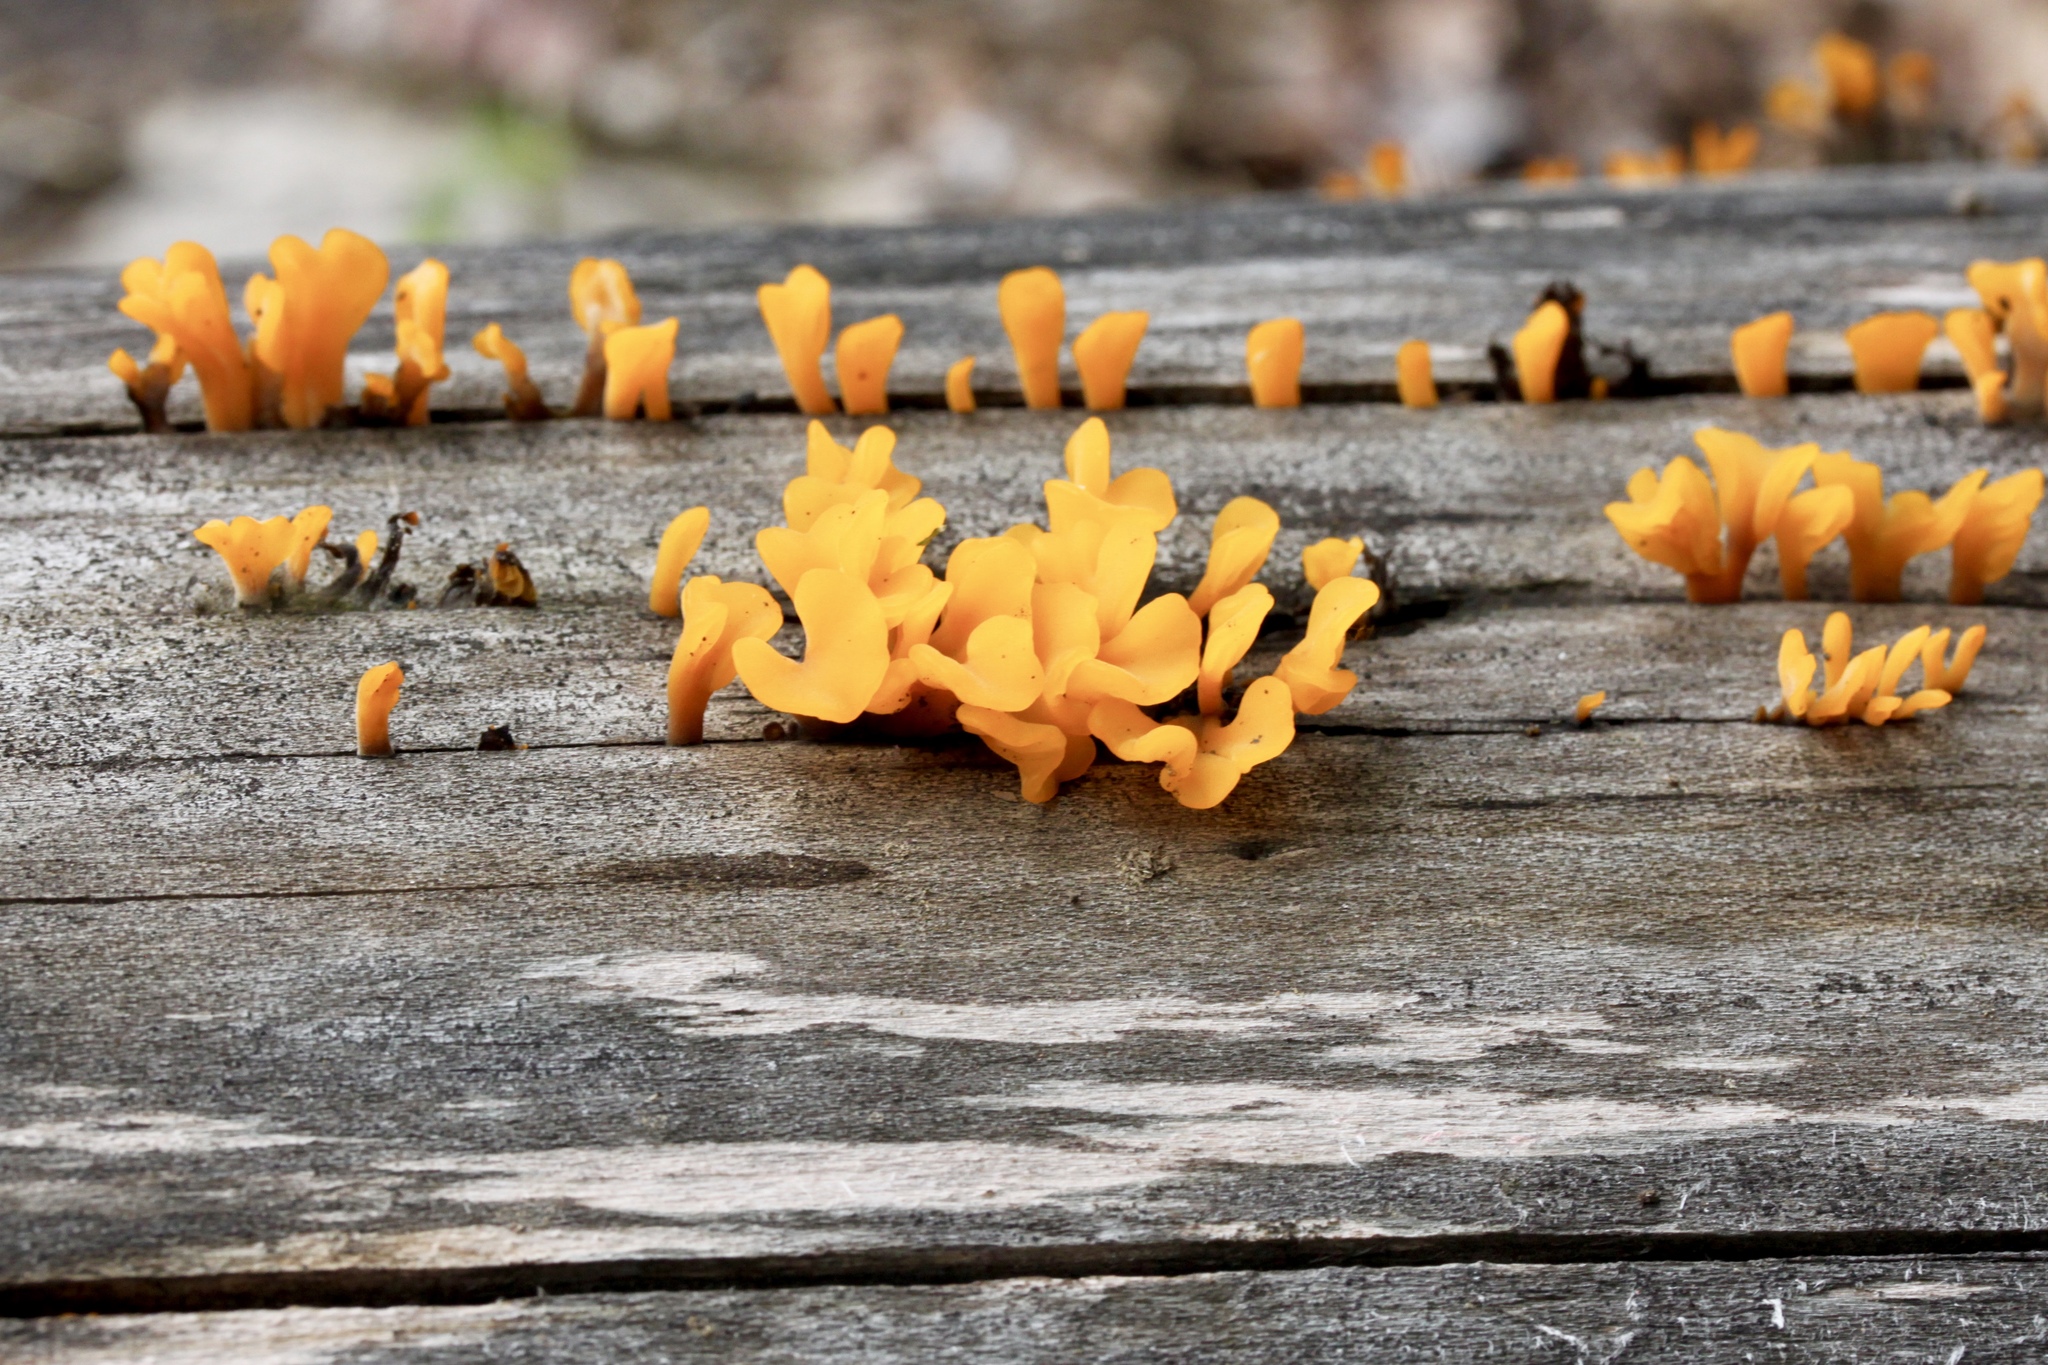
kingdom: Fungi
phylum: Basidiomycota
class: Dacrymycetes
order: Dacrymycetales
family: Dacrymycetaceae
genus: Dacrymyces
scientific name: Dacrymyces spathularius
